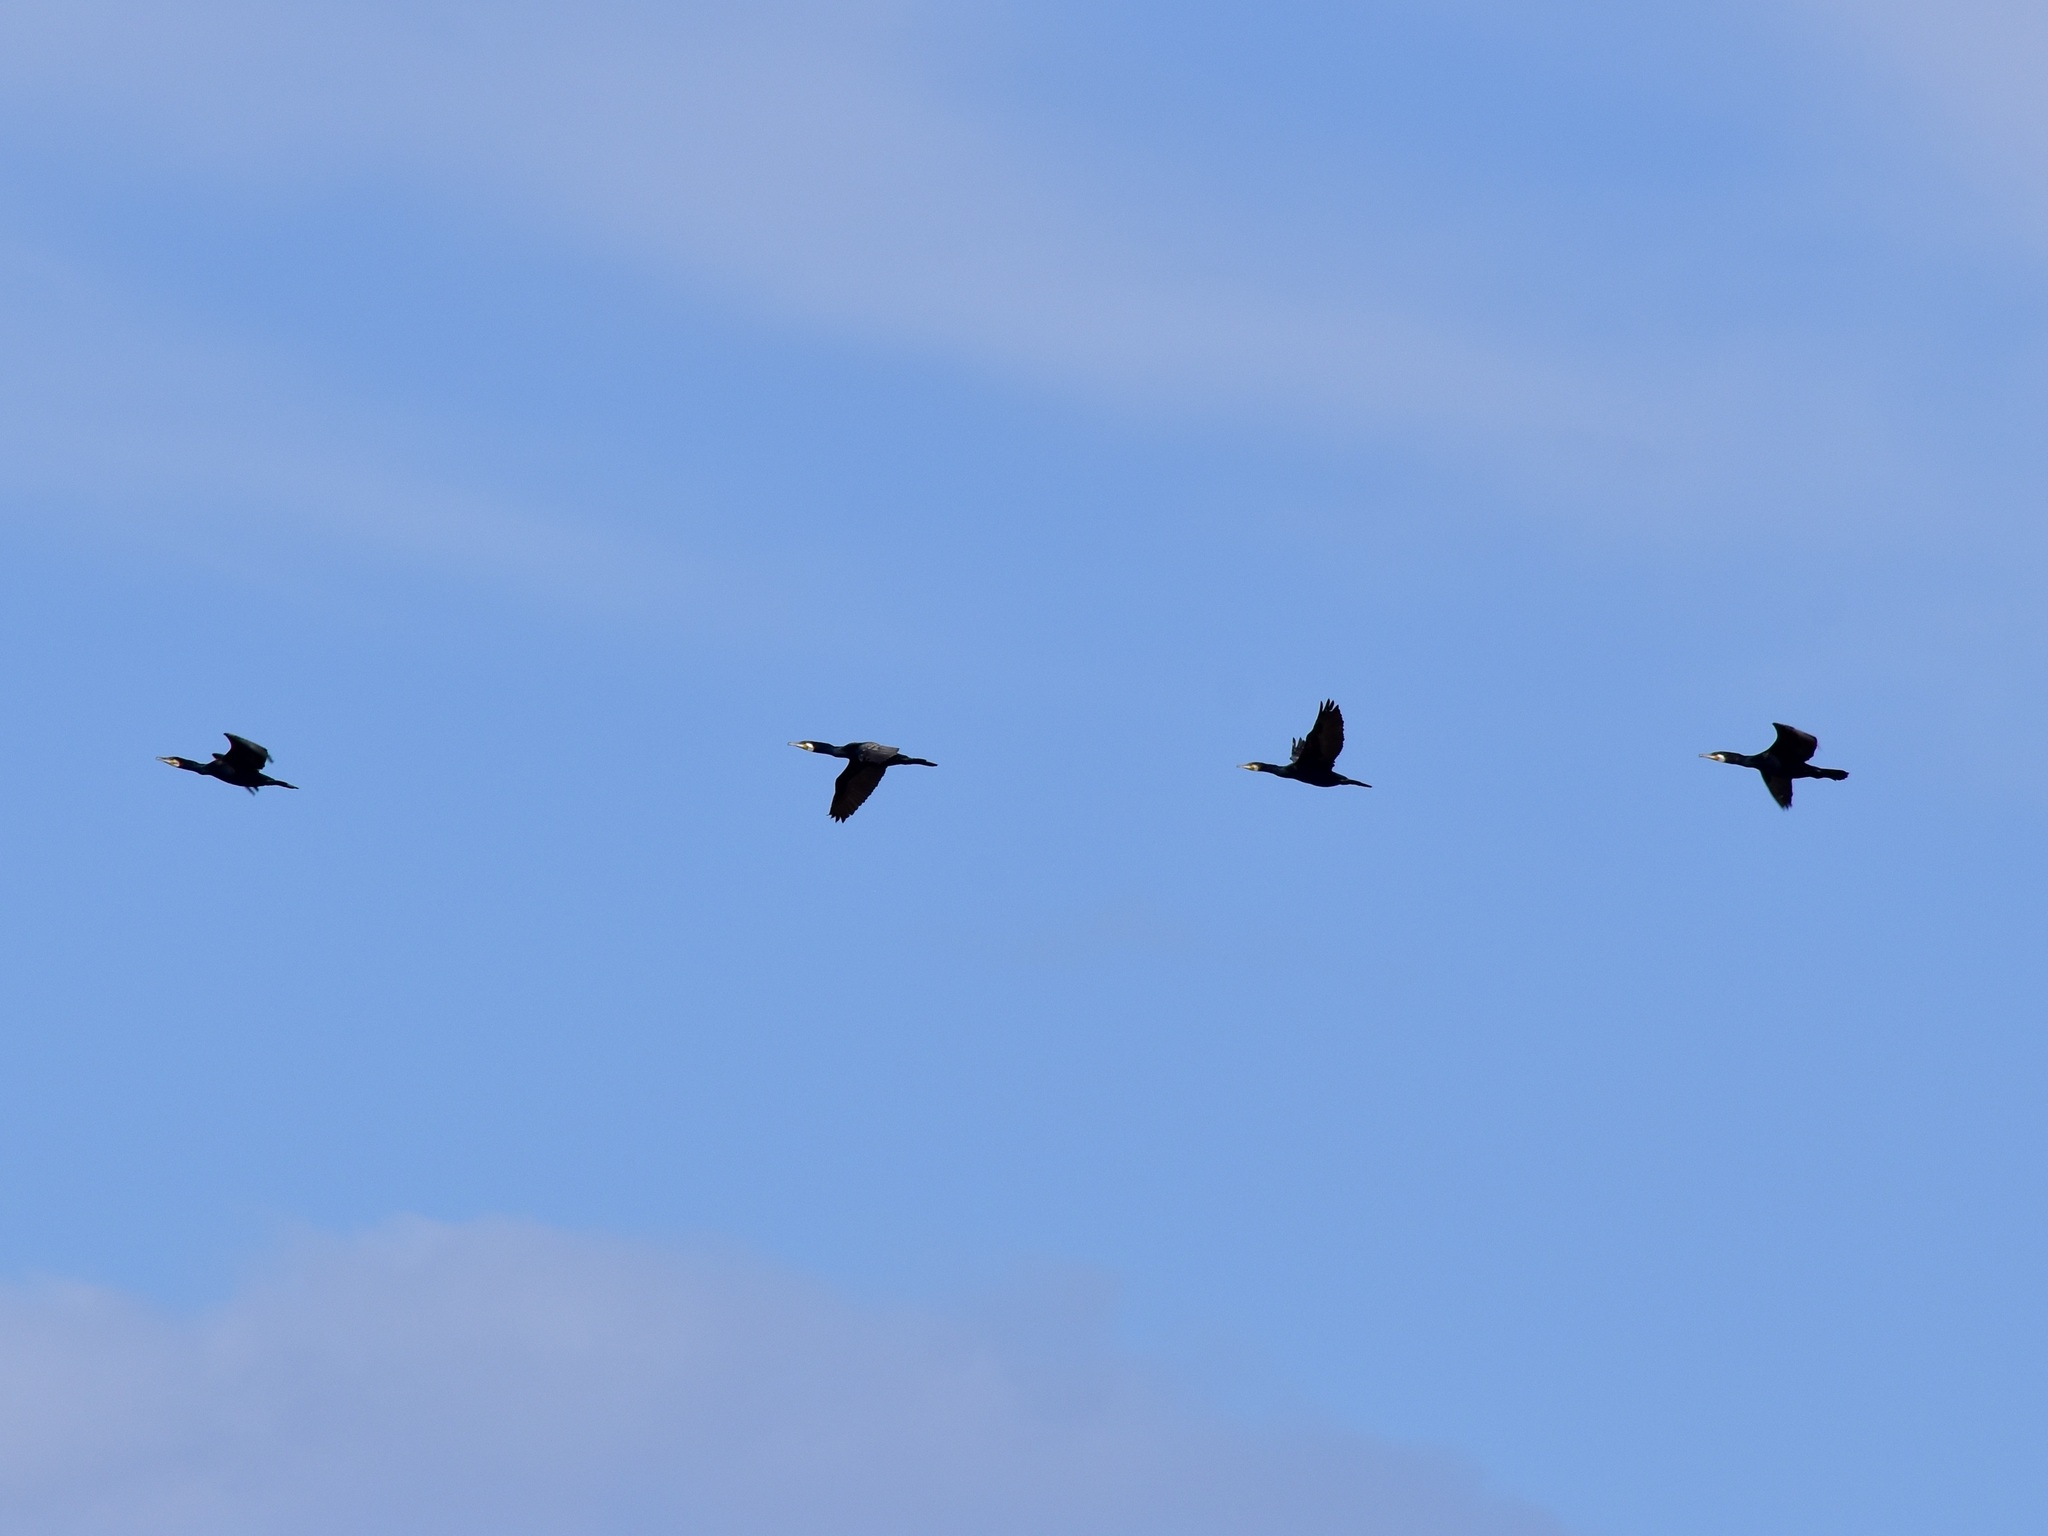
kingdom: Animalia
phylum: Chordata
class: Aves
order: Suliformes
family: Phalacrocoracidae
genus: Phalacrocorax
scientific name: Phalacrocorax carbo
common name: Great cormorant
